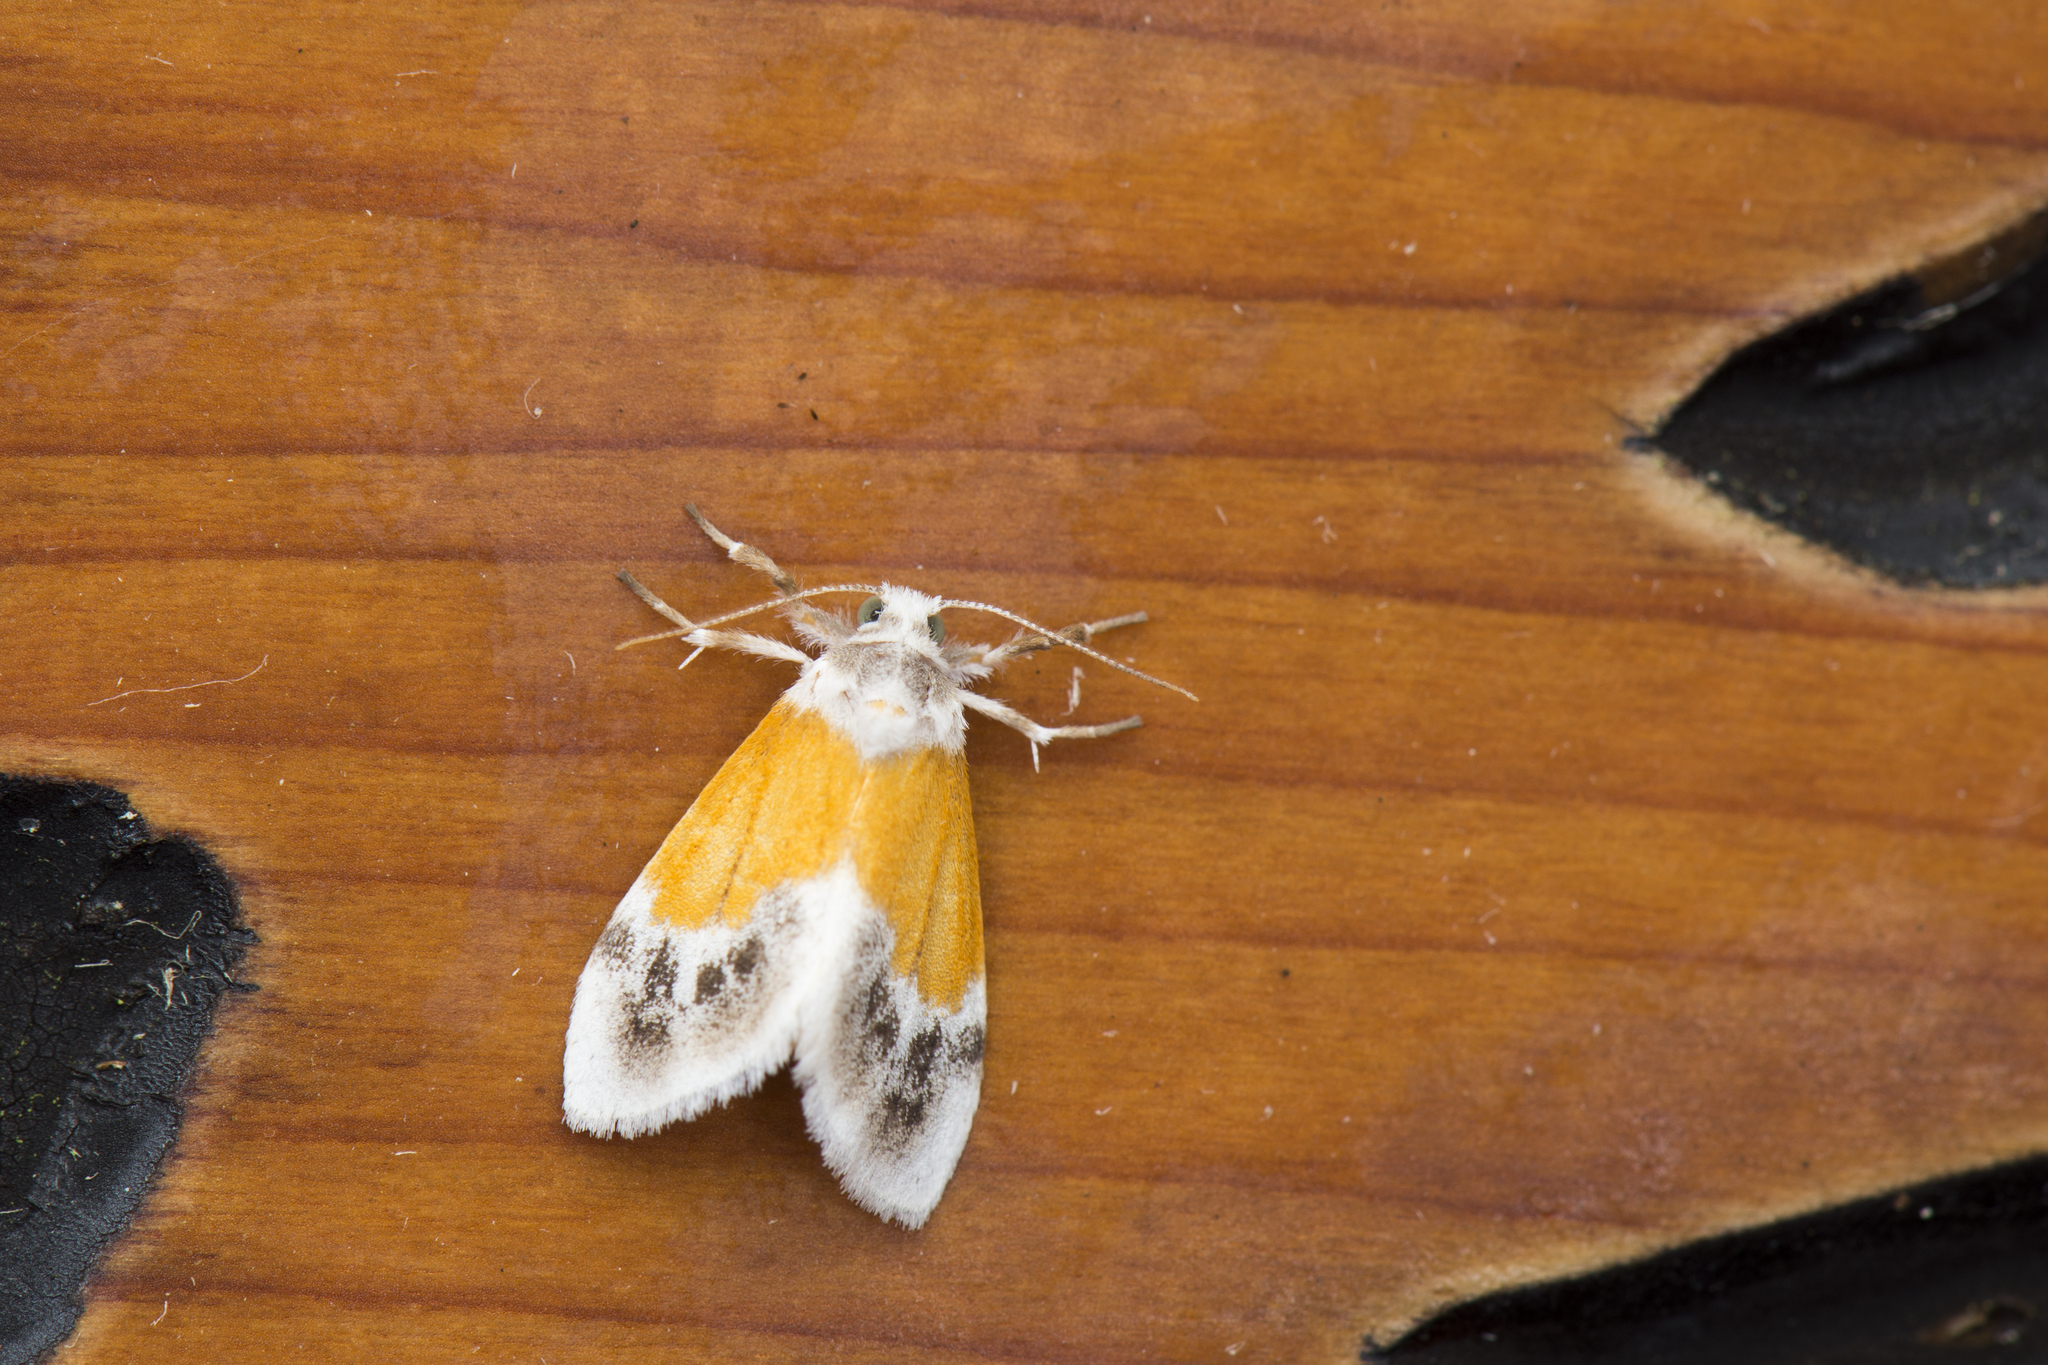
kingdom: Animalia
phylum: Arthropoda
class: Insecta
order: Lepidoptera
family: Erebidae
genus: Ovipennis
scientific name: Ovipennis semilutea
